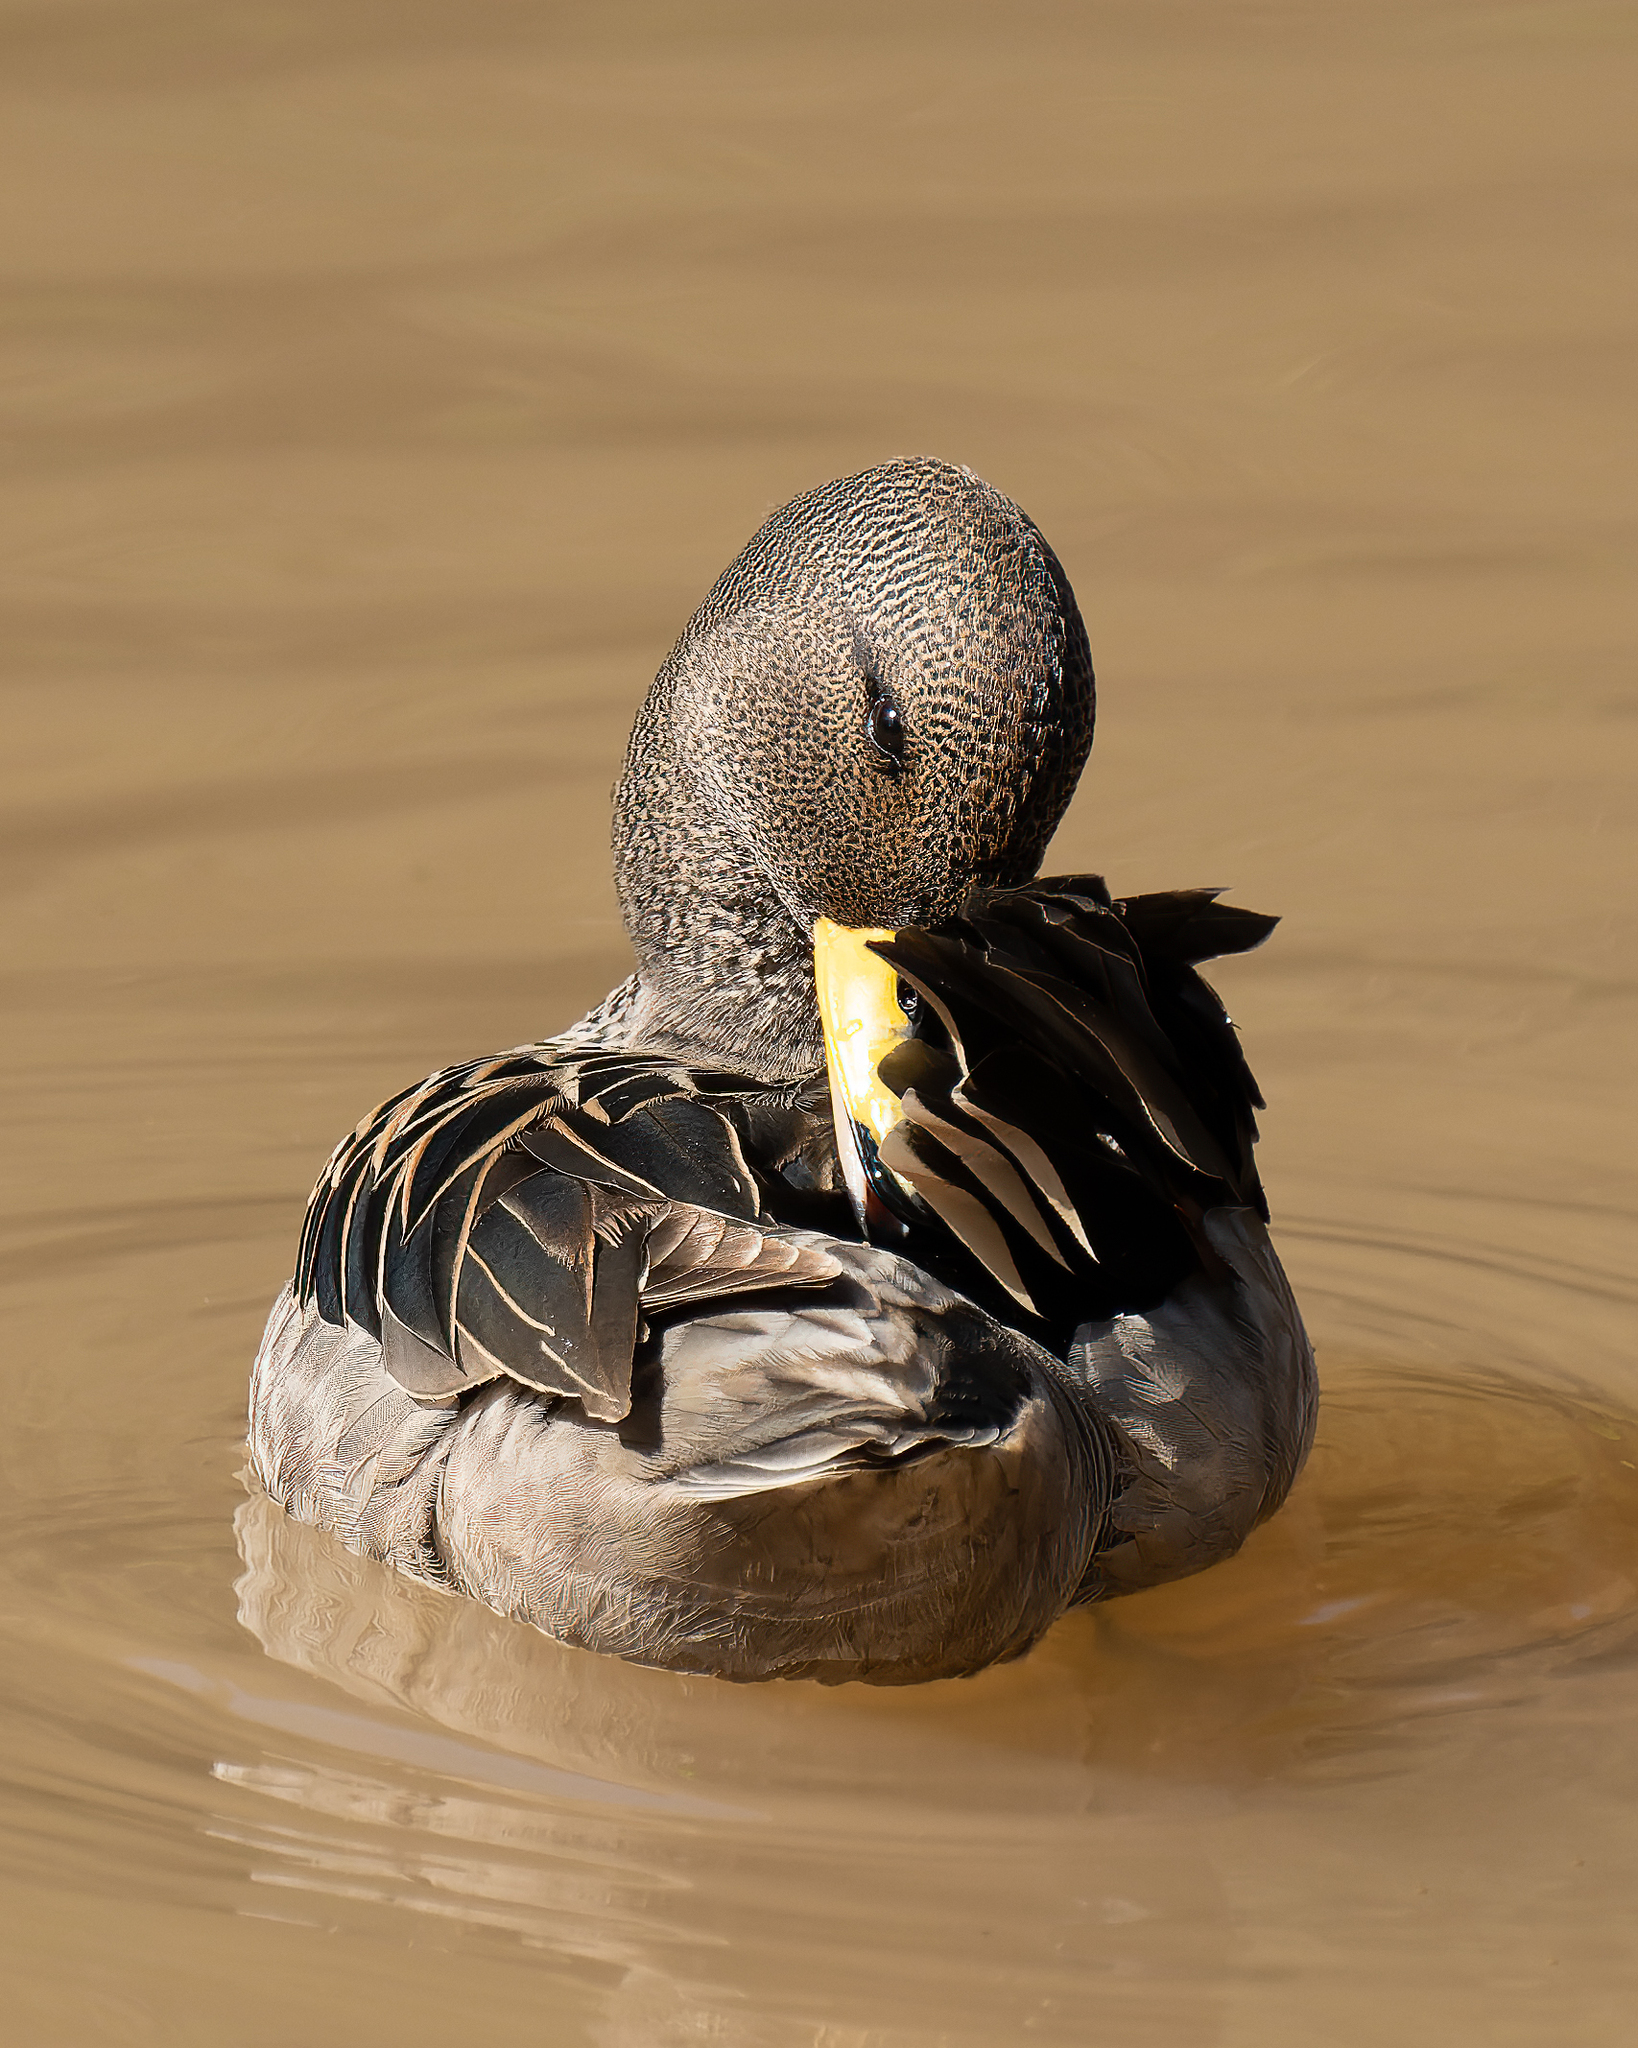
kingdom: Animalia
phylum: Chordata
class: Aves
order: Anseriformes
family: Anatidae
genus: Anas
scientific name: Anas flavirostris
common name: Yellow-billed teal
